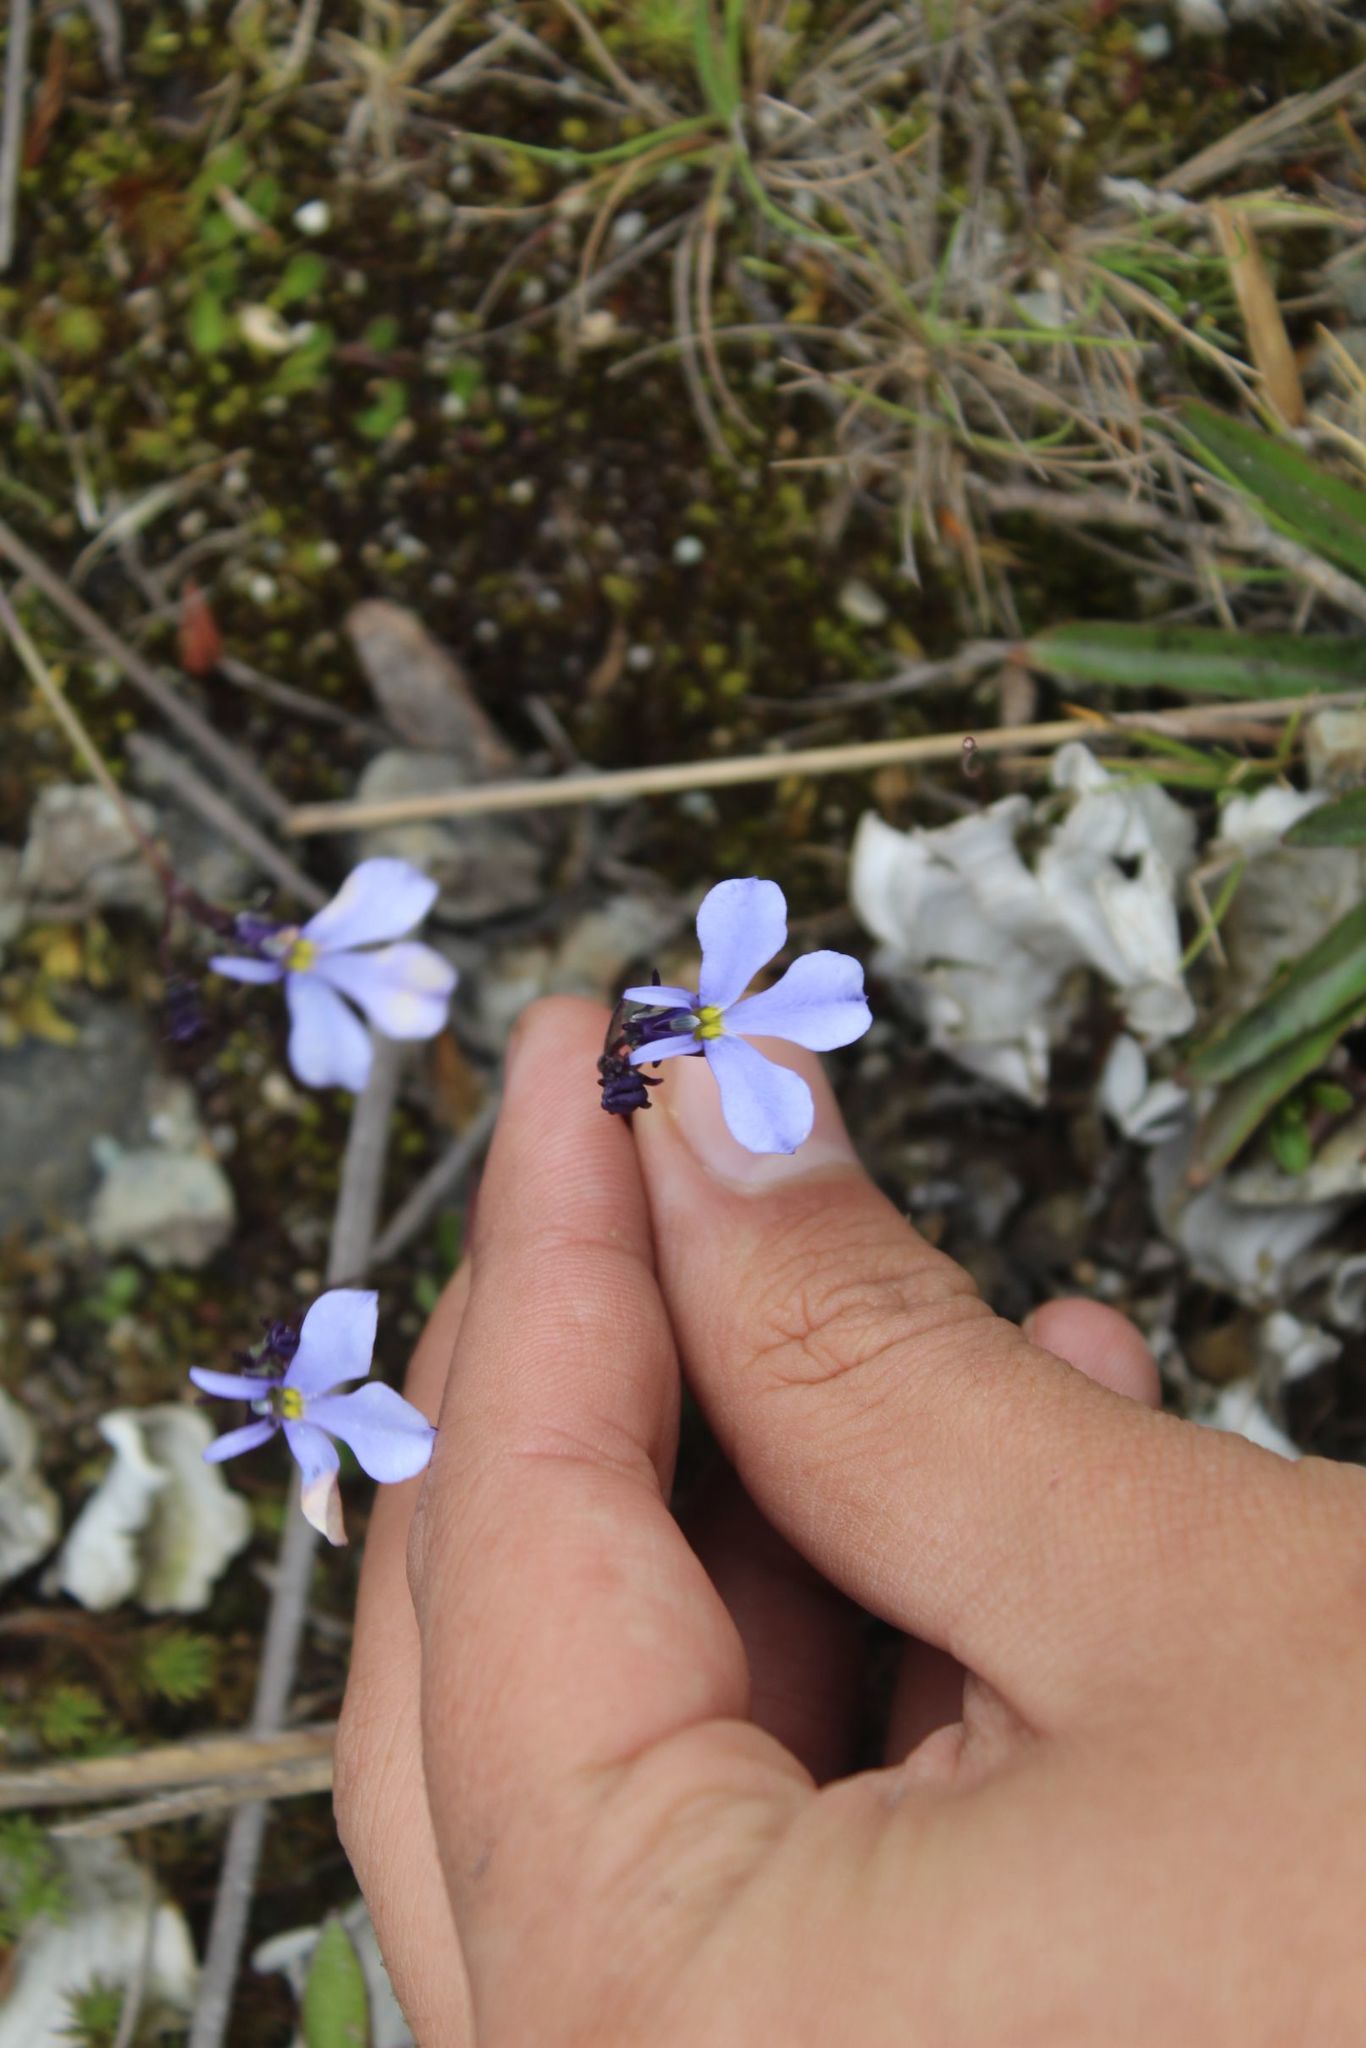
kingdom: Plantae
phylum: Tracheophyta
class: Magnoliopsida
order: Asterales
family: Campanulaceae
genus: Lobelia
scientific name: Lobelia tenera
